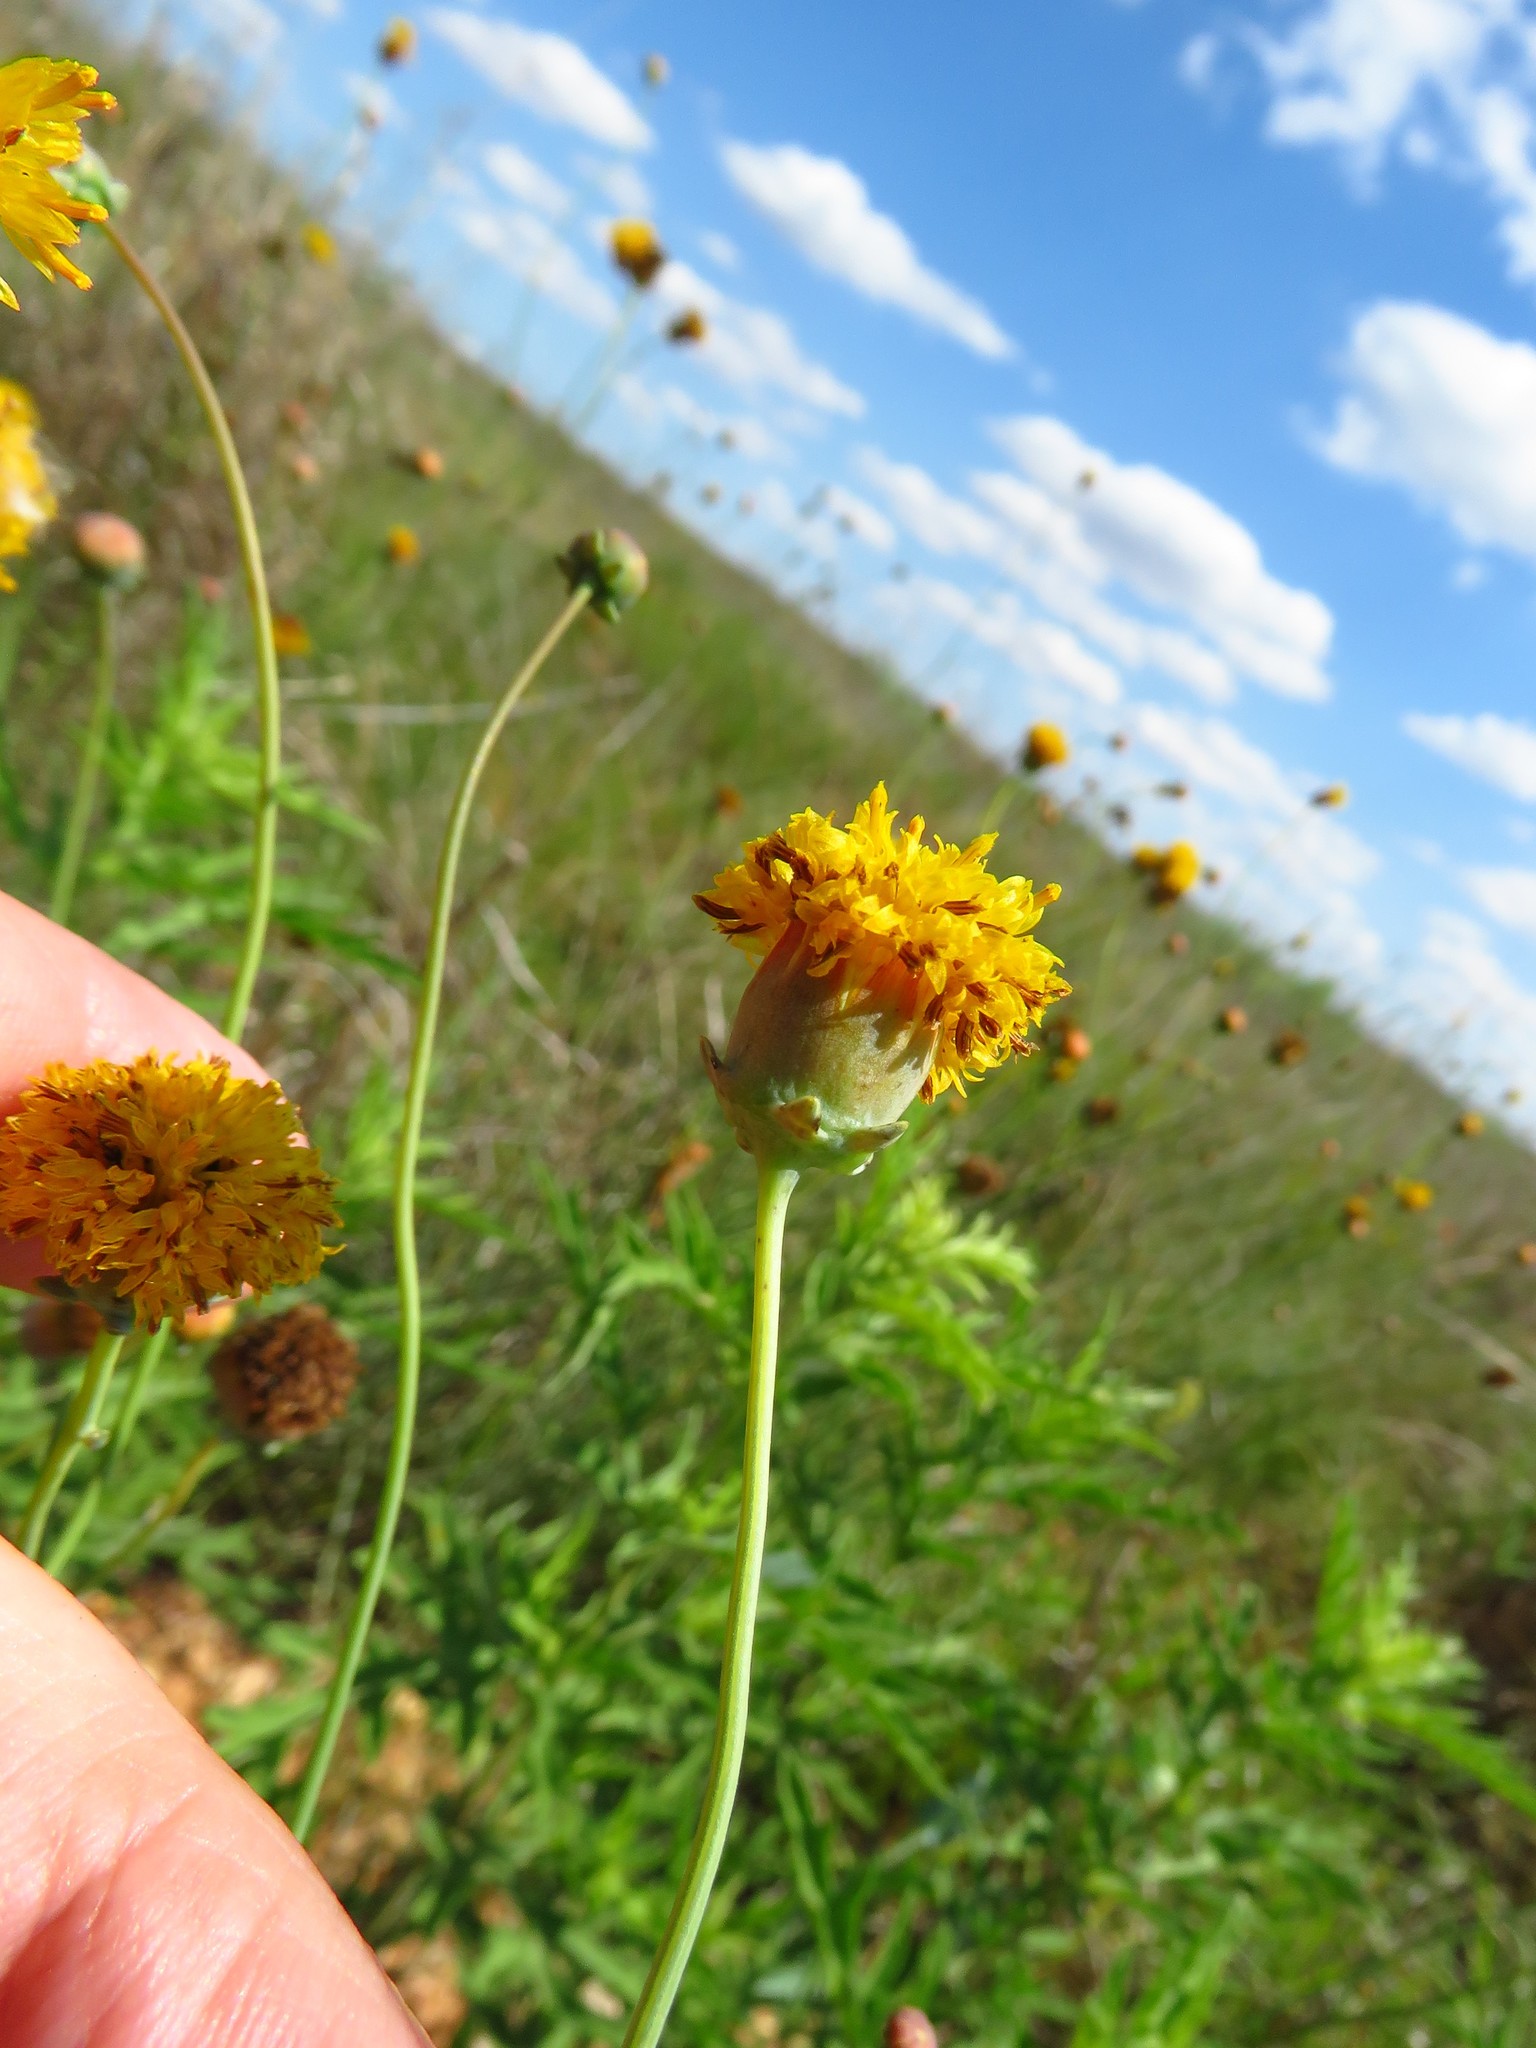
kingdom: Plantae
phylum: Tracheophyta
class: Magnoliopsida
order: Asterales
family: Asteraceae
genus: Thelesperma
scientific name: Thelesperma megapotamicum
